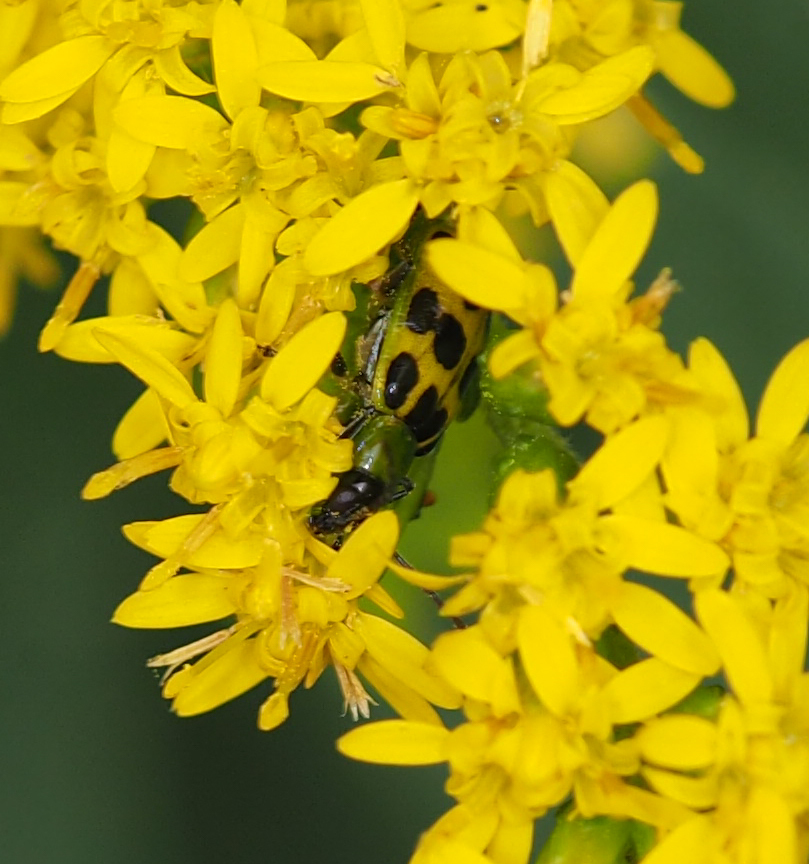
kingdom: Animalia
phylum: Arthropoda
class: Insecta
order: Coleoptera
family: Chrysomelidae
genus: Diabrotica
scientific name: Diabrotica undecimpunctata
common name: Spotted cucumber beetle
